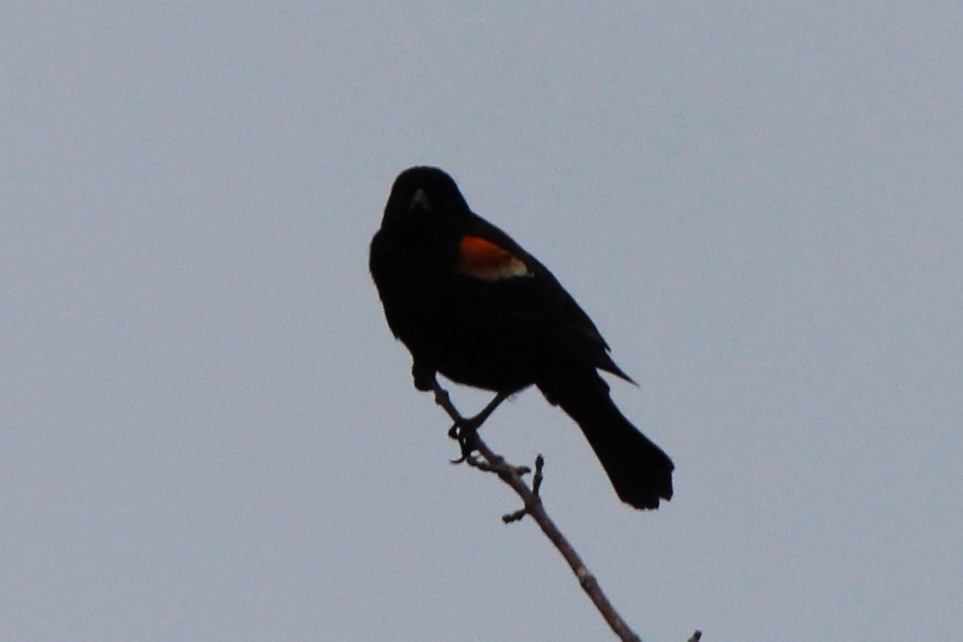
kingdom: Animalia
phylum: Chordata
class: Aves
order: Passeriformes
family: Icteridae
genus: Agelaius
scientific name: Agelaius phoeniceus
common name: Red-winged blackbird
